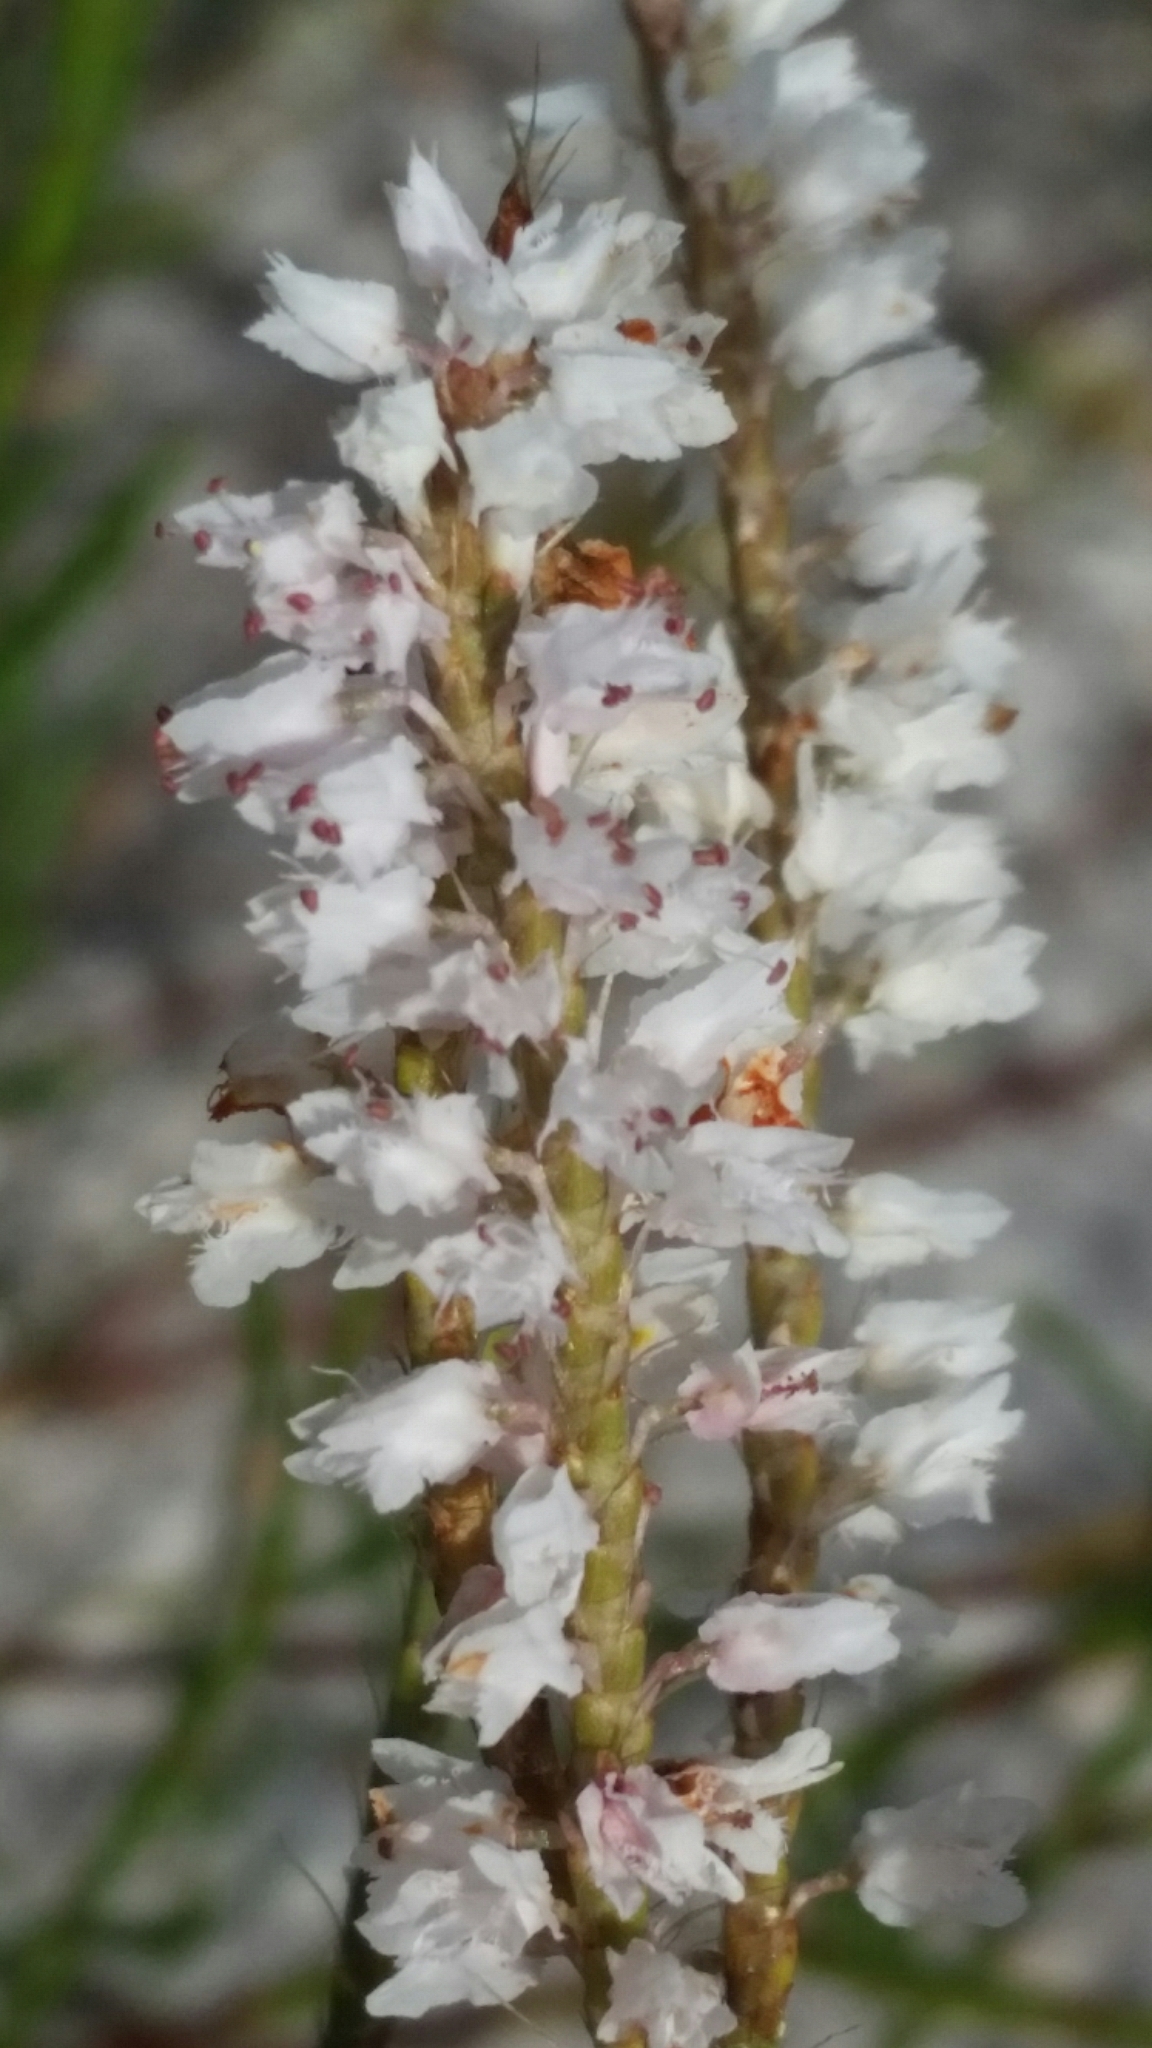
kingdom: Plantae
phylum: Tracheophyta
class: Magnoliopsida
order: Caryophyllales
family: Polygonaceae
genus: Polygonella
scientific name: Polygonella robusta
